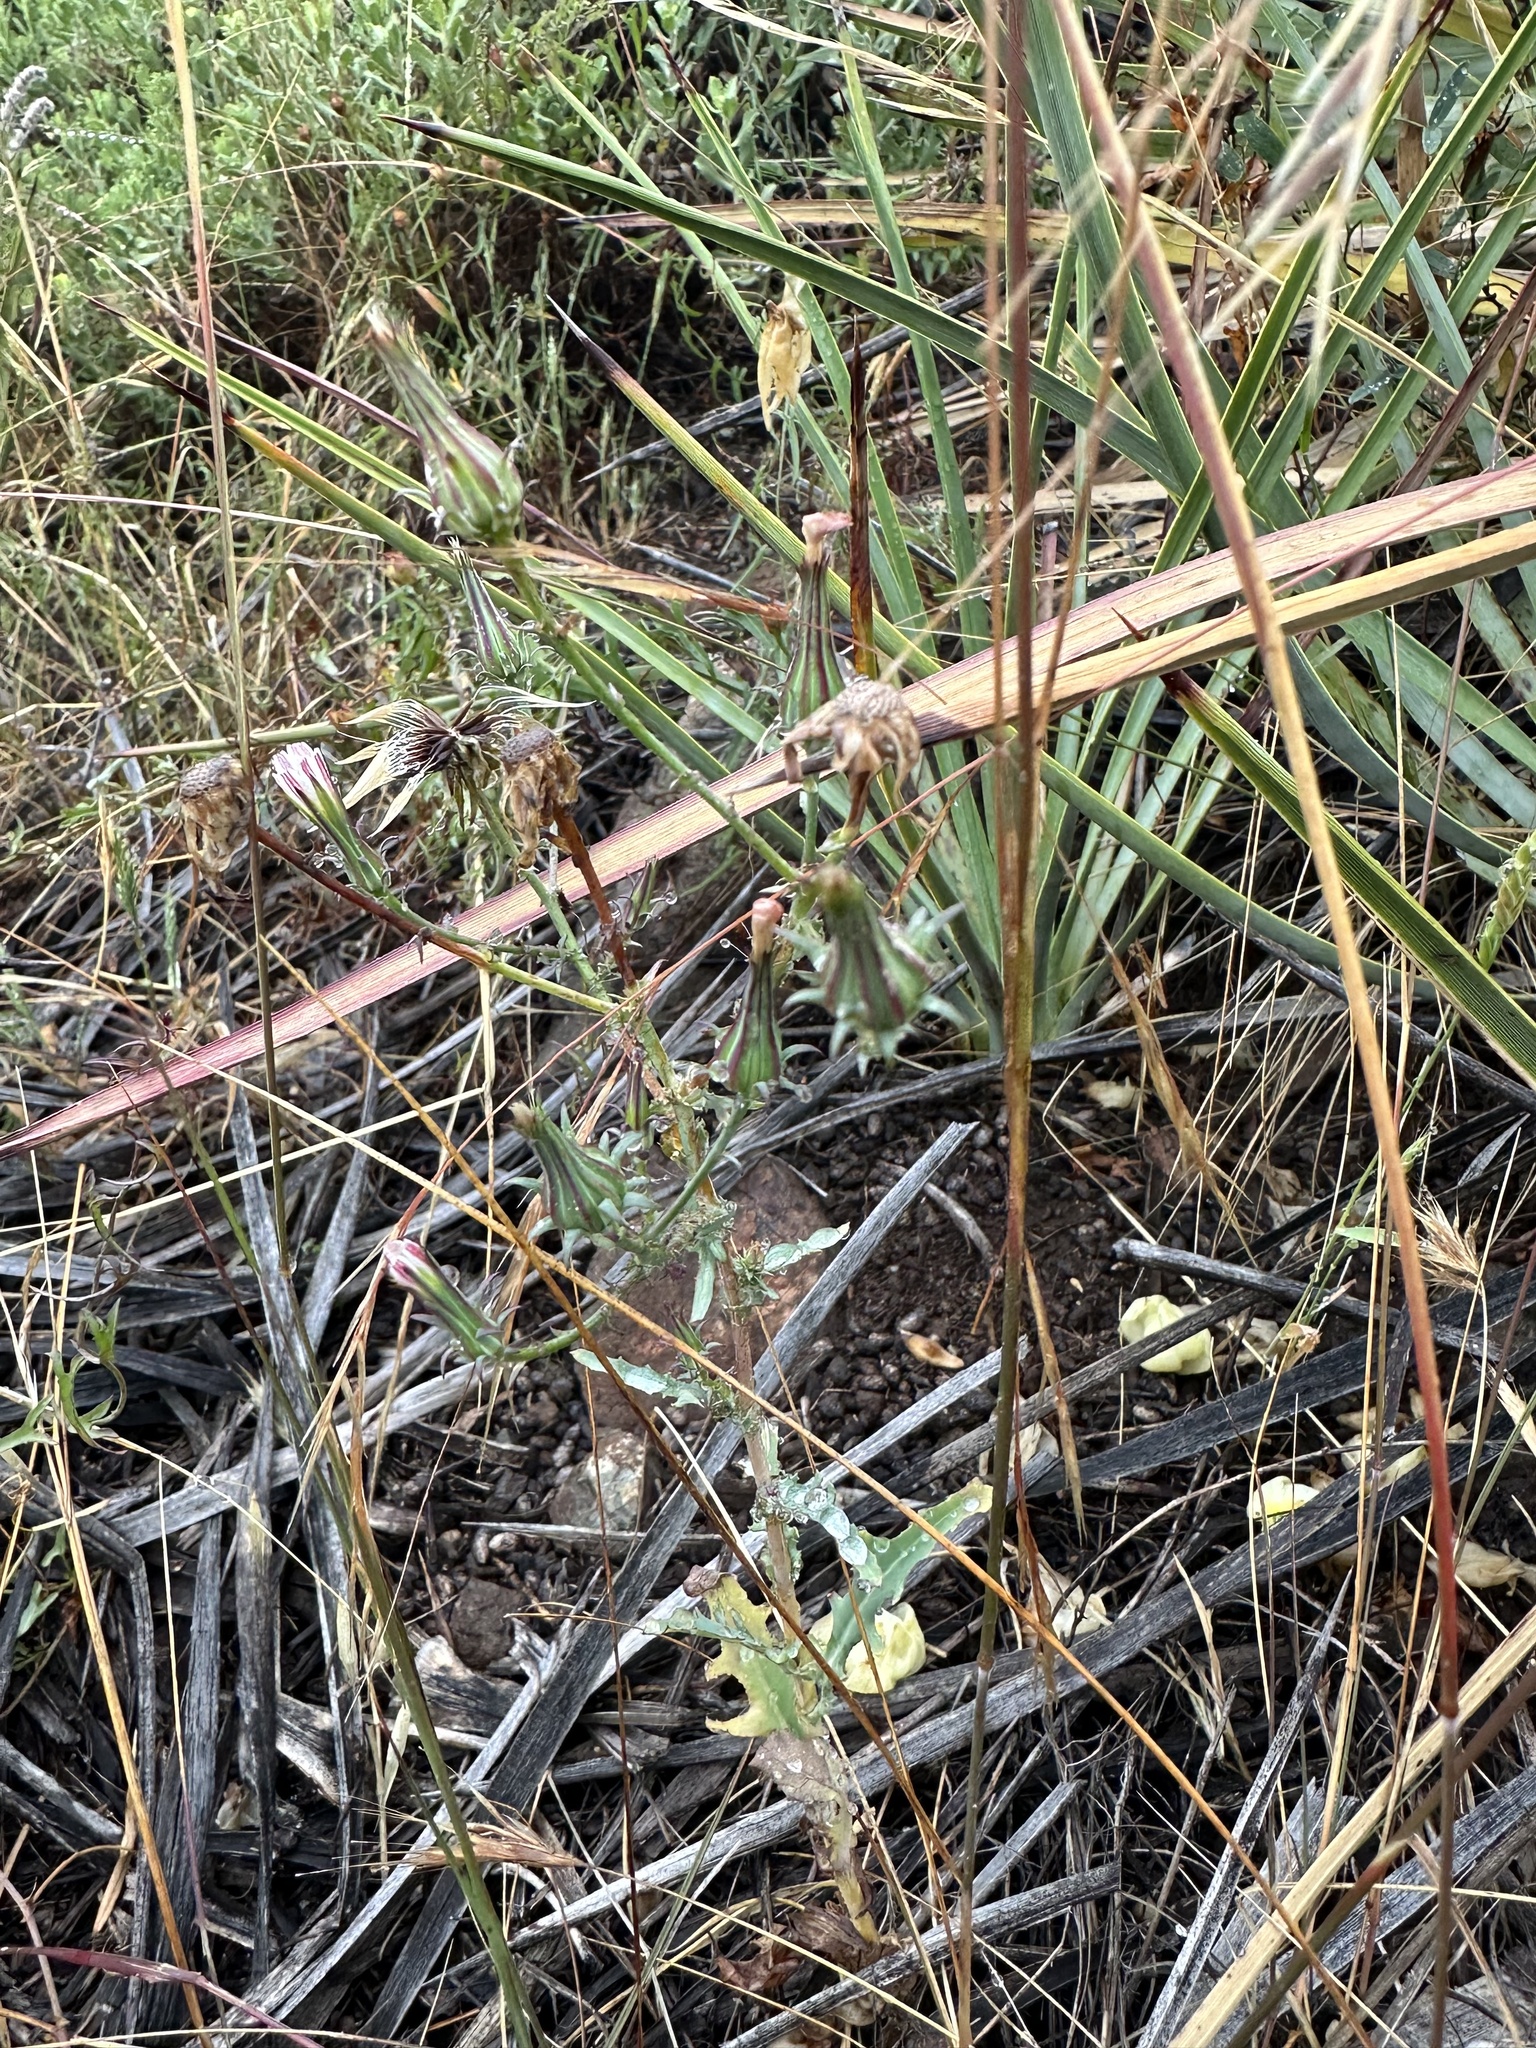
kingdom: Plantae
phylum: Tracheophyta
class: Magnoliopsida
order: Asterales
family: Asteraceae
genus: Rafinesquia
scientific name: Rafinesquia californica
